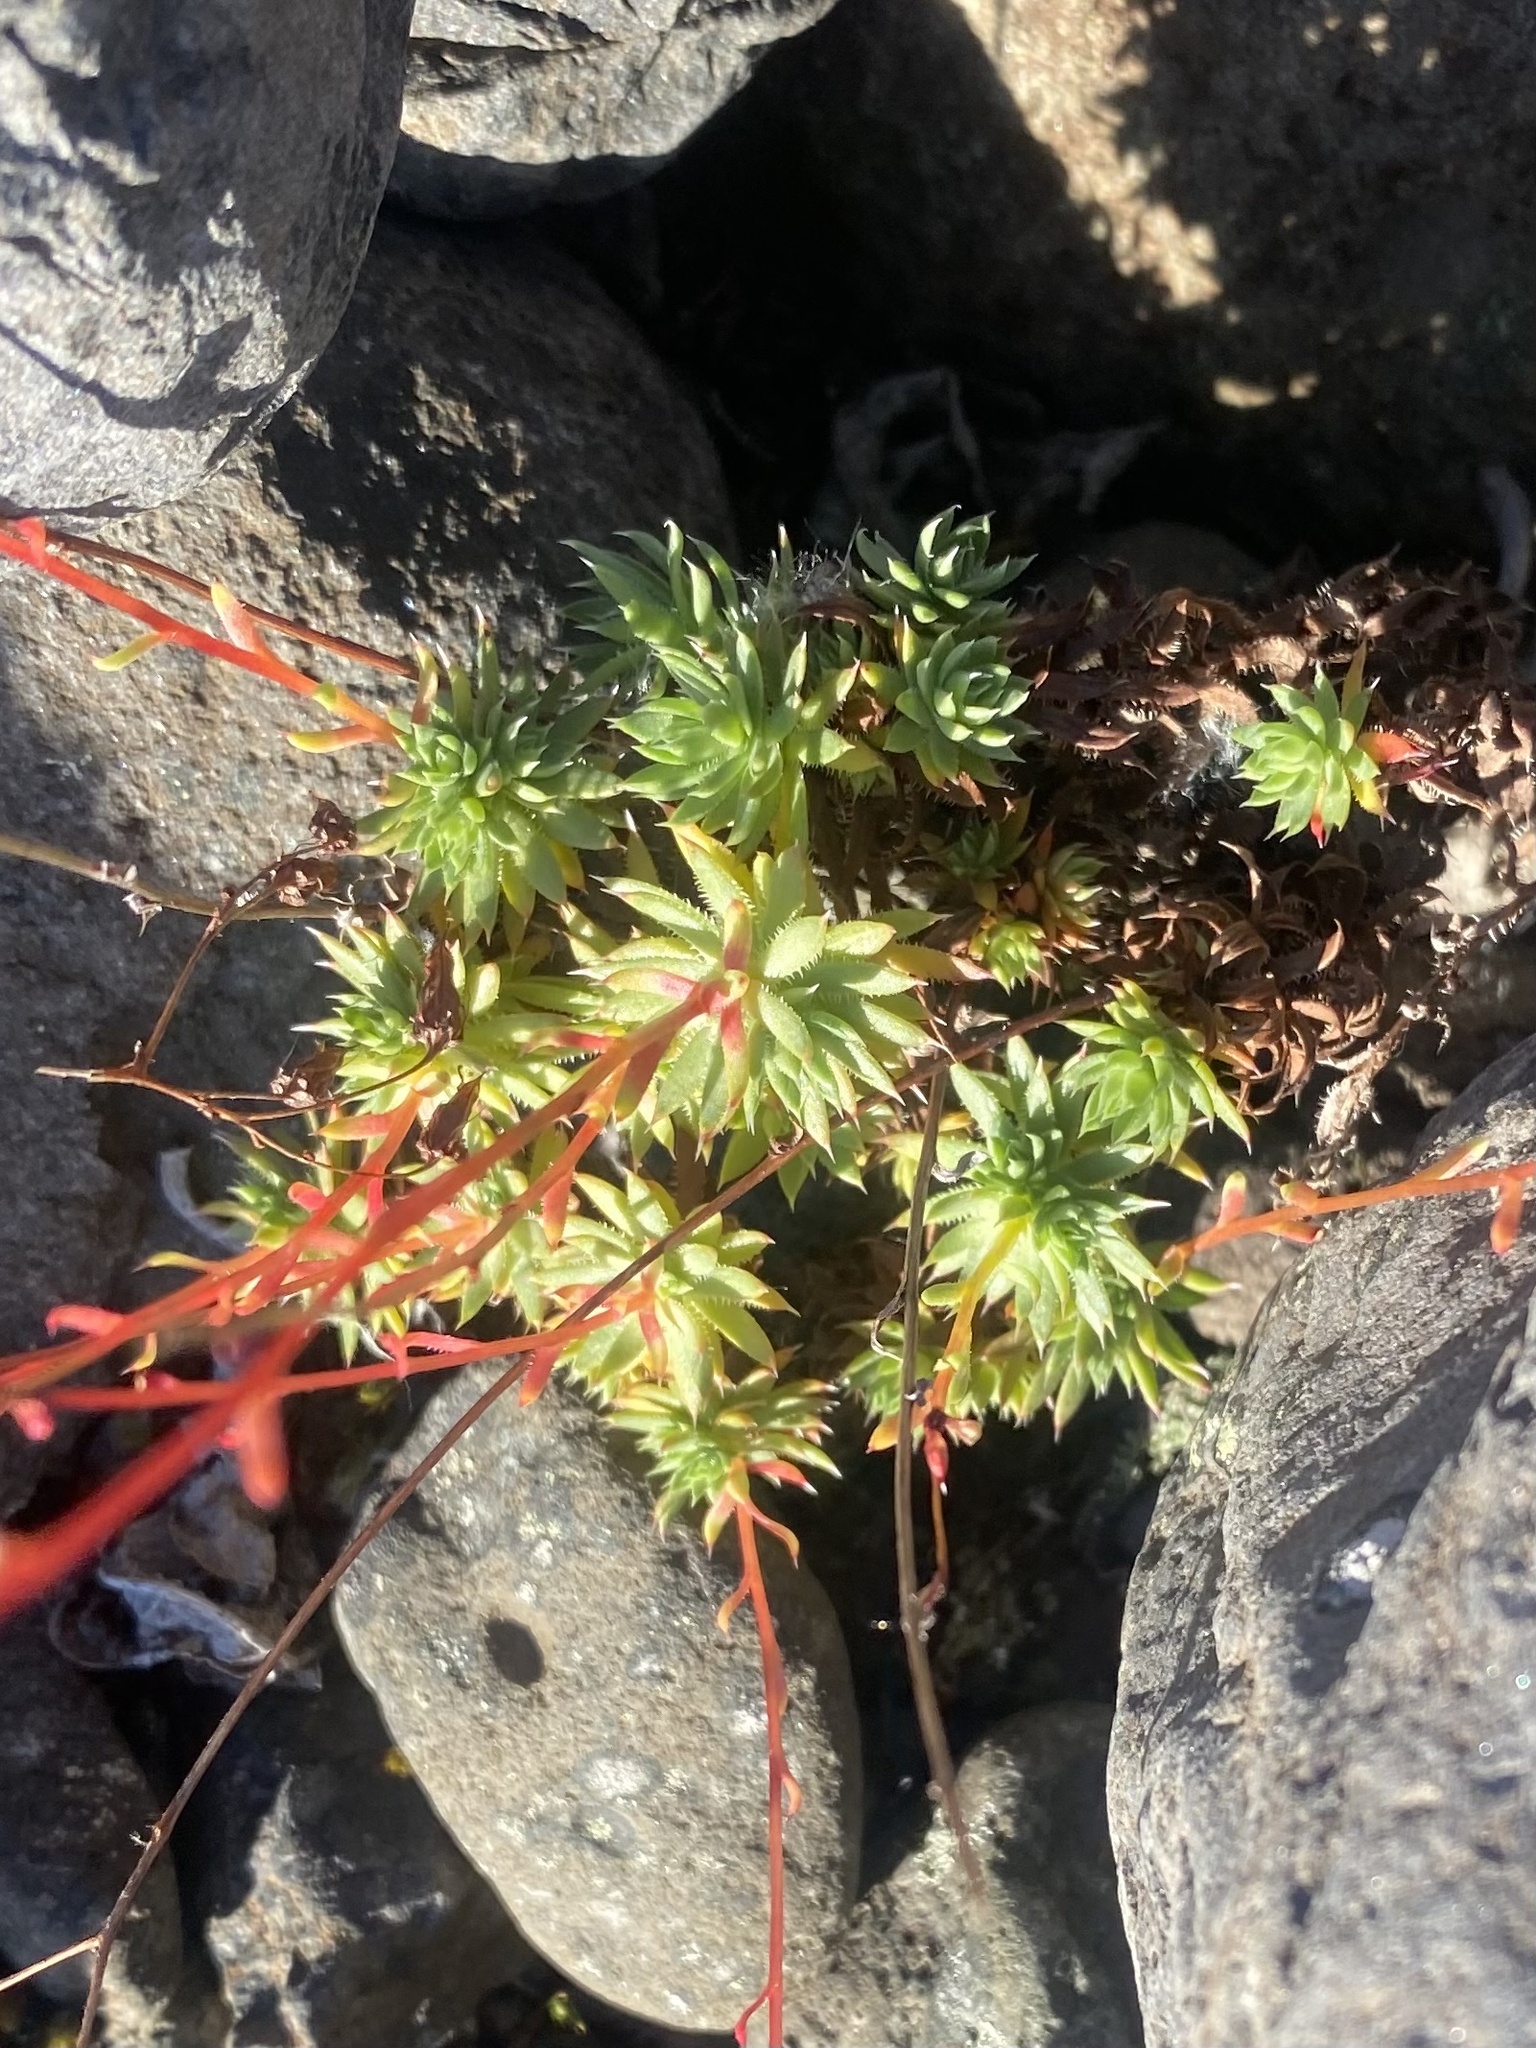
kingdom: Plantae
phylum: Tracheophyta
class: Magnoliopsida
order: Saxifragales
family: Saxifragaceae
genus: Saxifraga
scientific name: Saxifraga
